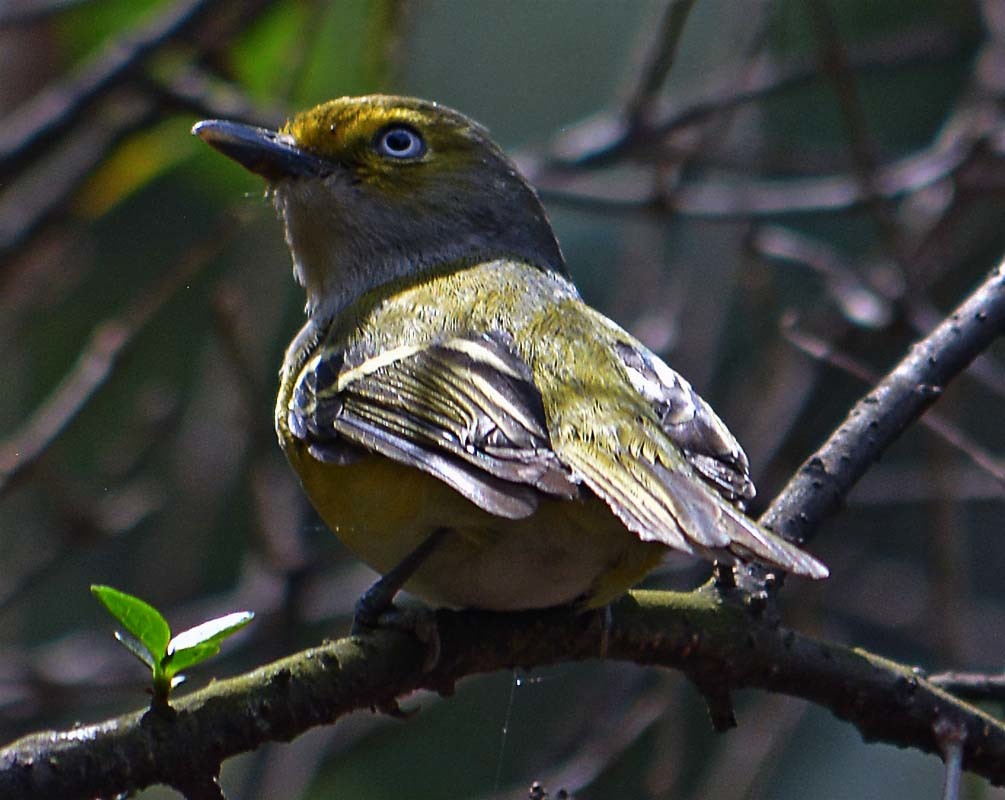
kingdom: Animalia
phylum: Chordata
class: Aves
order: Passeriformes
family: Vireonidae
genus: Vireo
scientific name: Vireo griseus
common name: White-eyed vireo
